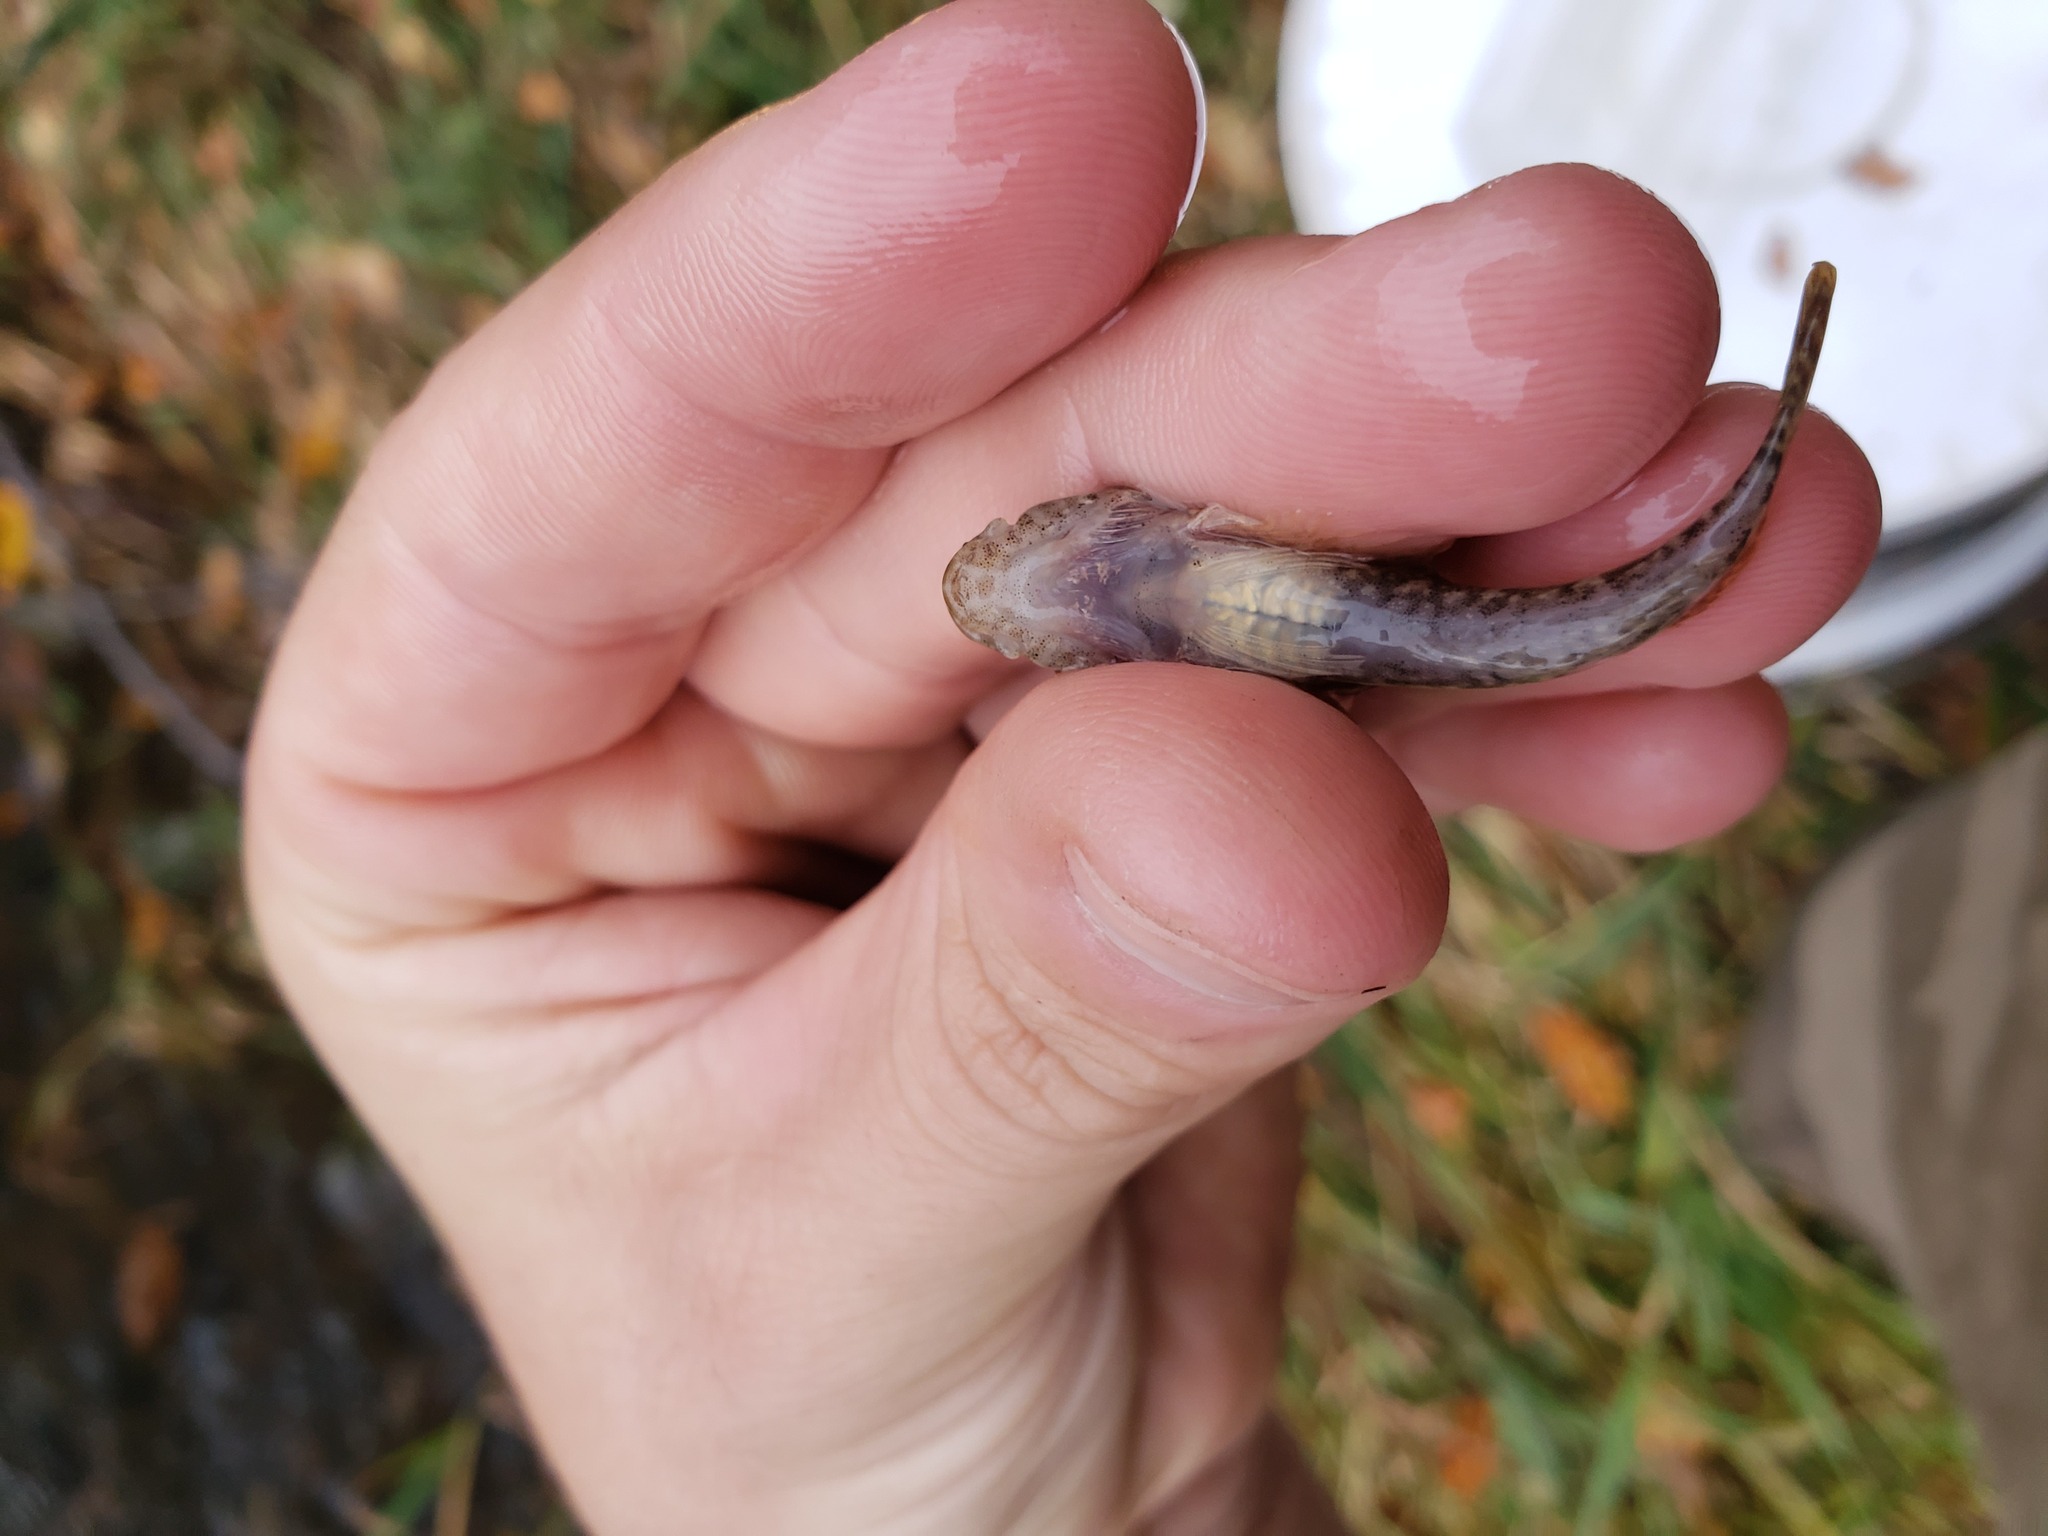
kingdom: Animalia
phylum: Chordata
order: Scorpaeniformes
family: Cottidae
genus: Cottus
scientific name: Cottus bairdii
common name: Mottled sculpin
